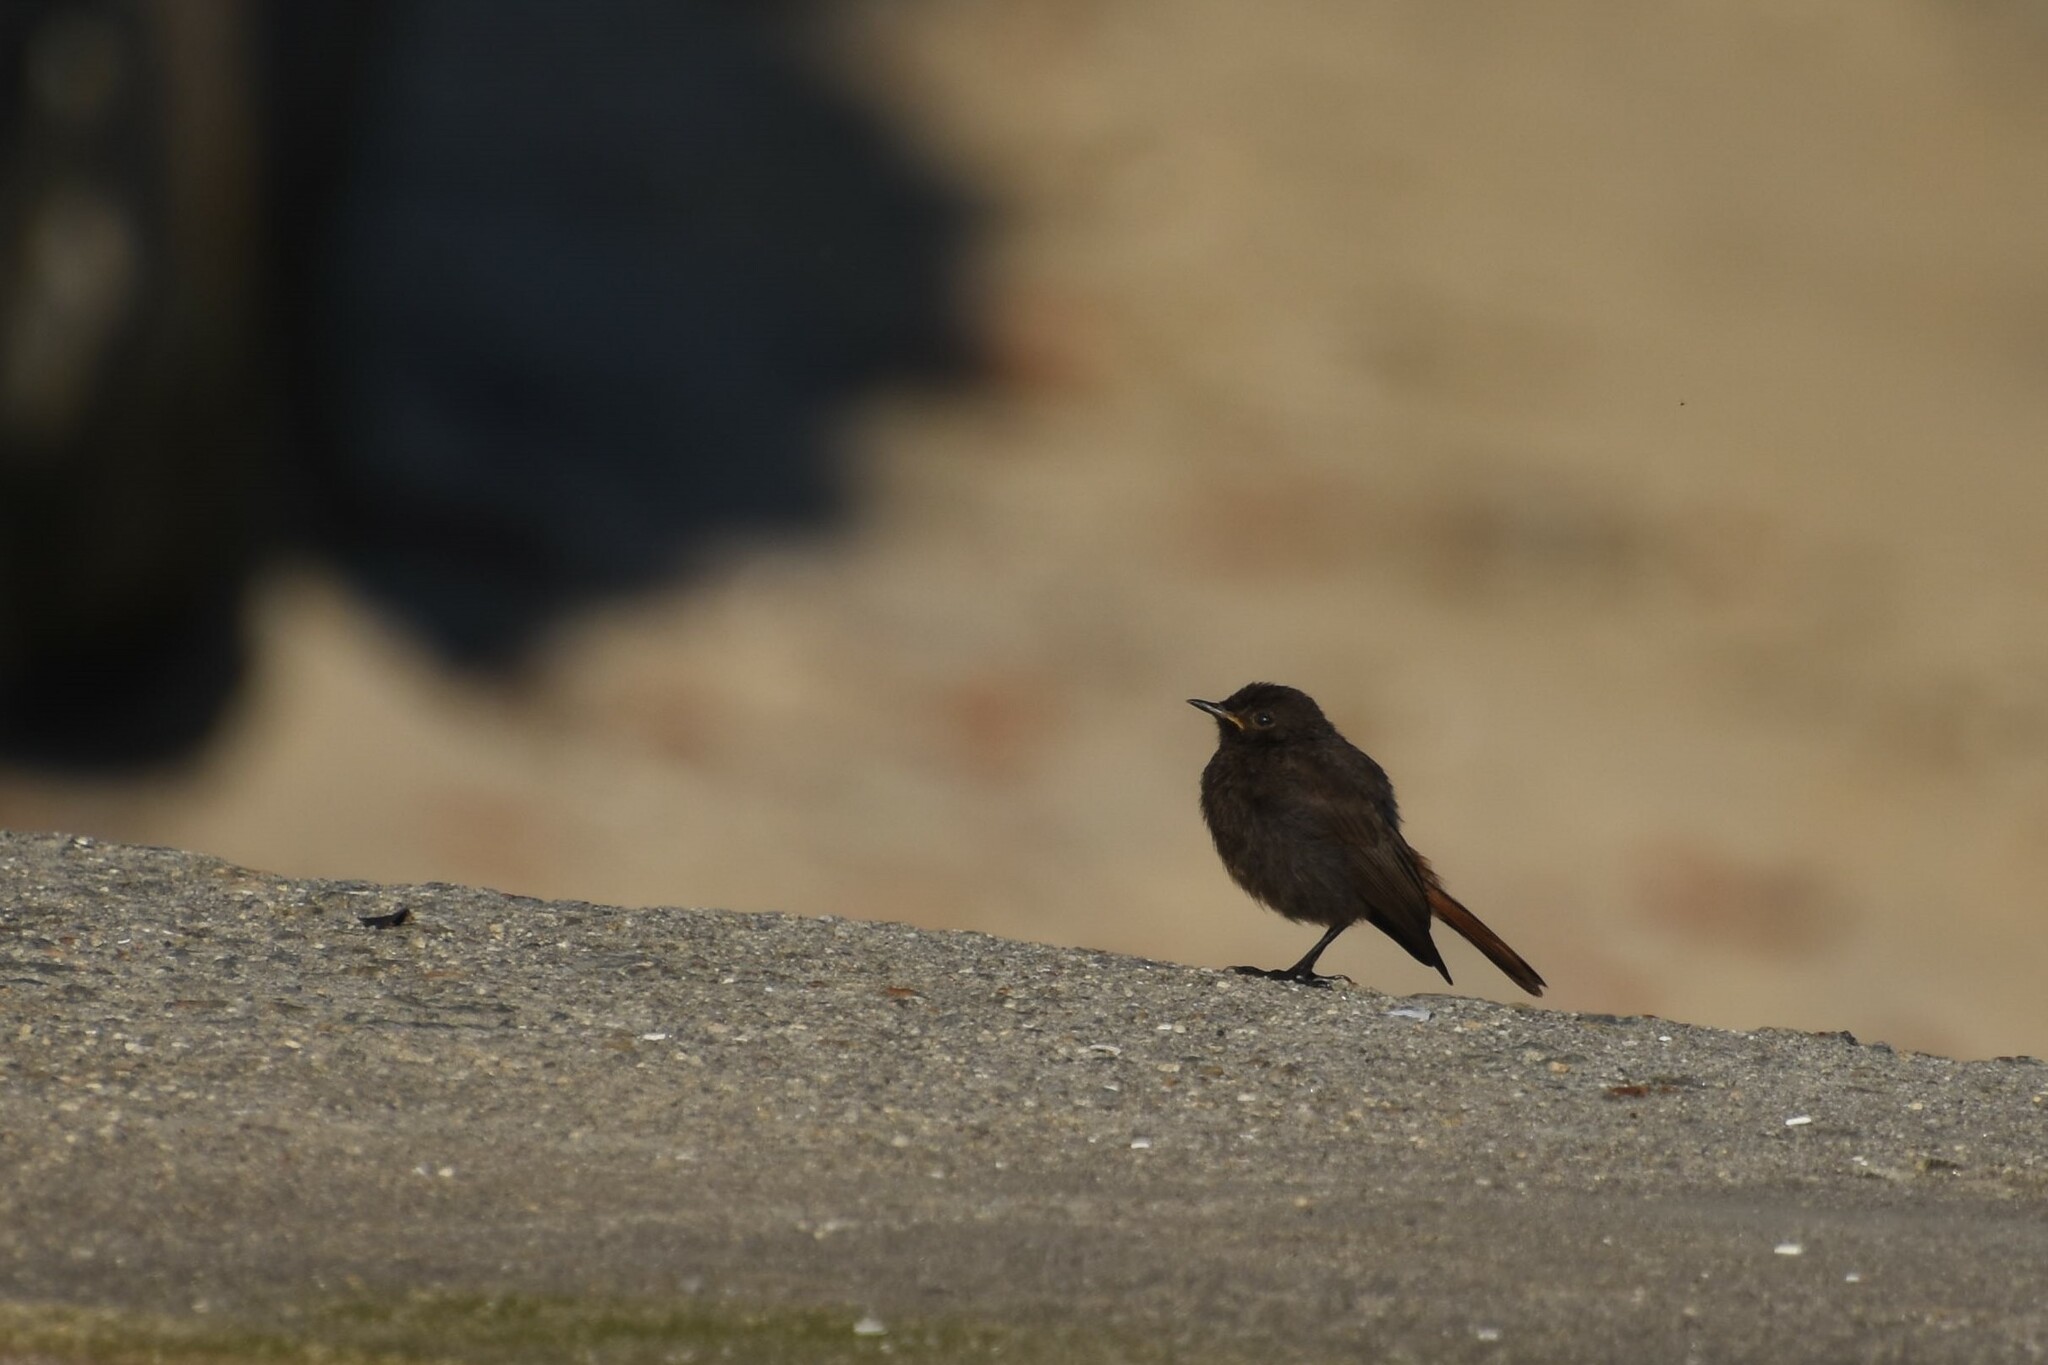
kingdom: Animalia
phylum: Chordata
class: Aves
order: Passeriformes
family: Muscicapidae
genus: Phoenicurus
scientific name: Phoenicurus ochruros
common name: Black redstart
